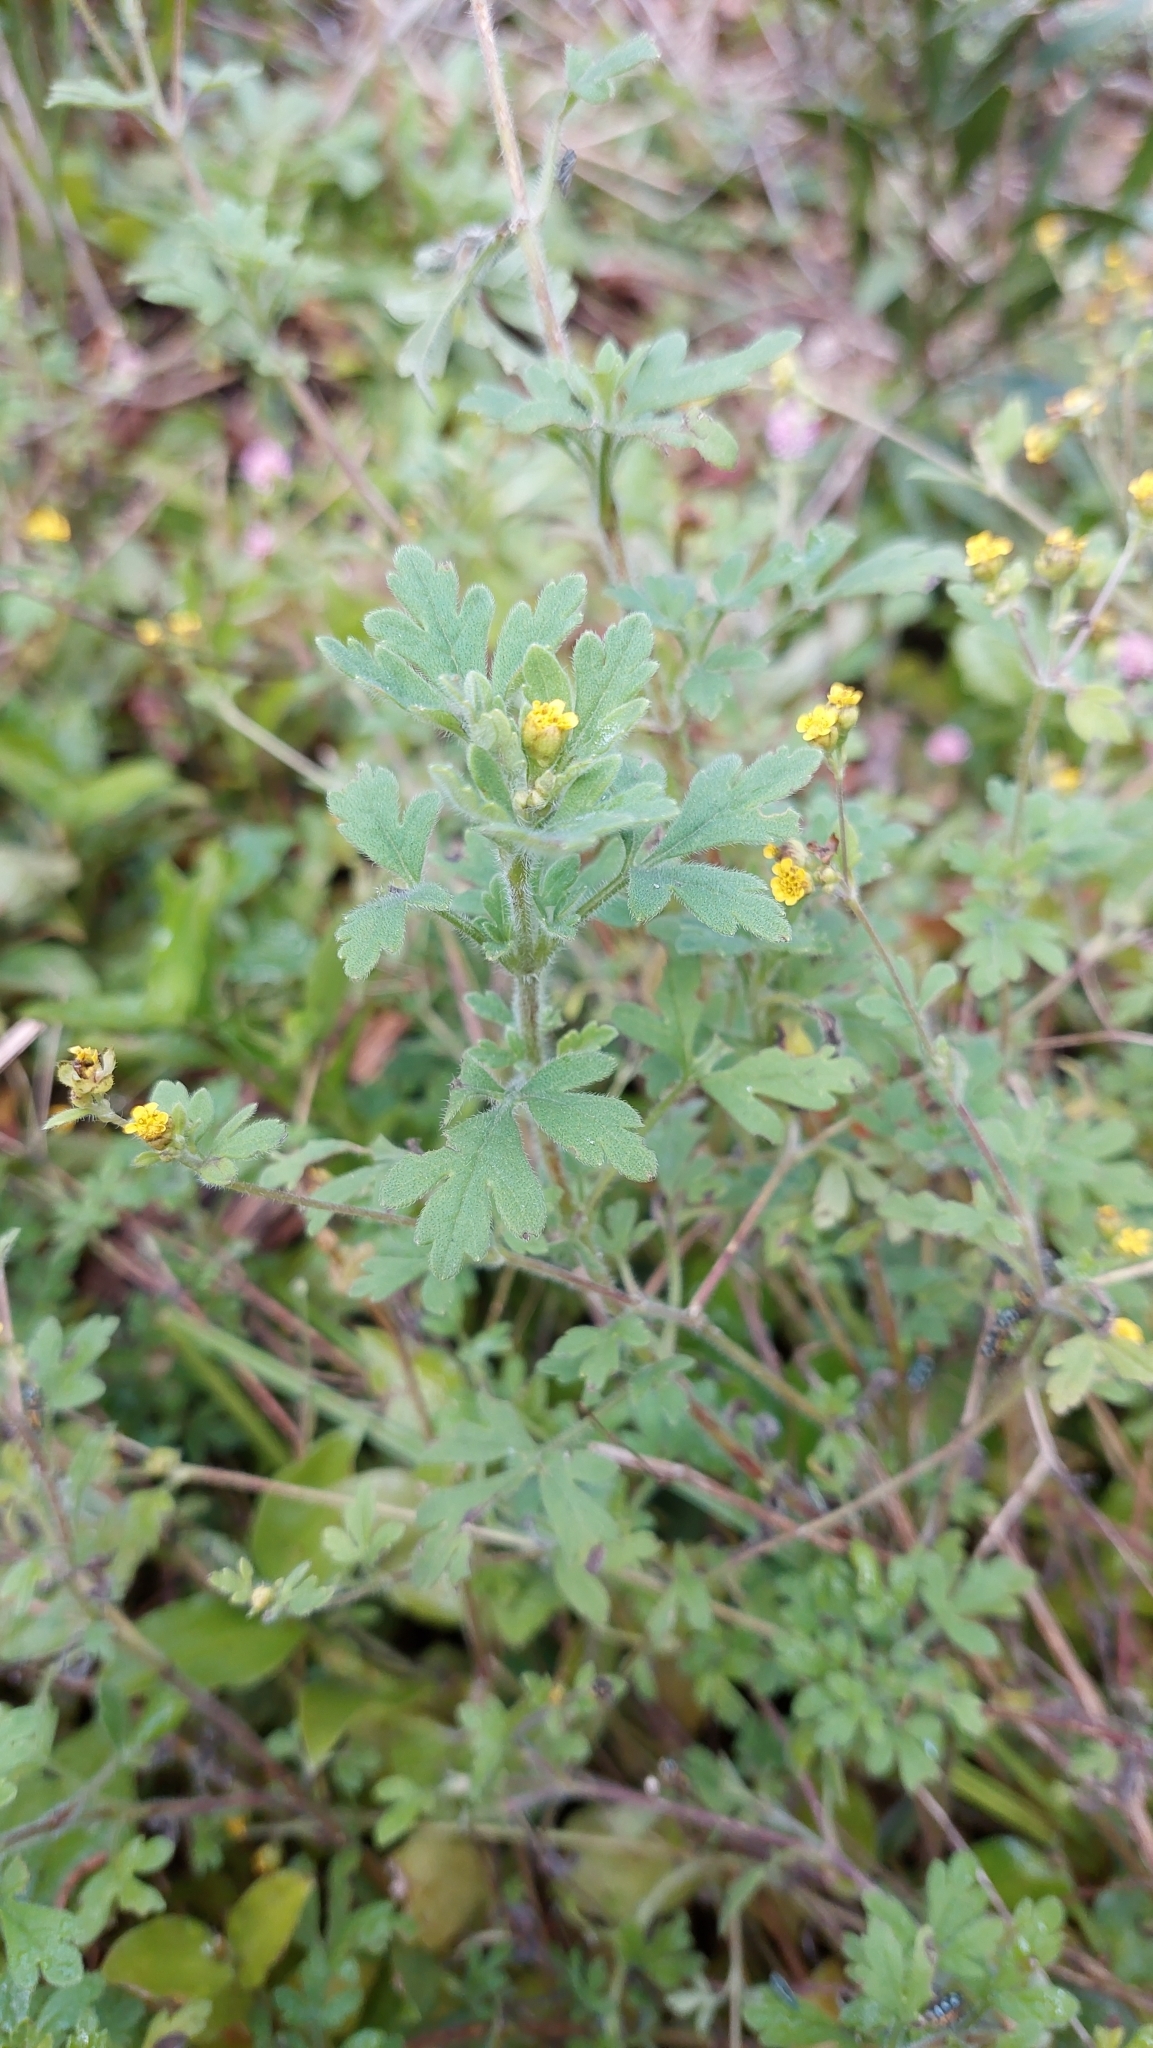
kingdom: Plantae
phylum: Tracheophyta
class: Magnoliopsida
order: Asterales
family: Asteraceae
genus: Villanova
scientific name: Villanova oppositifolia
